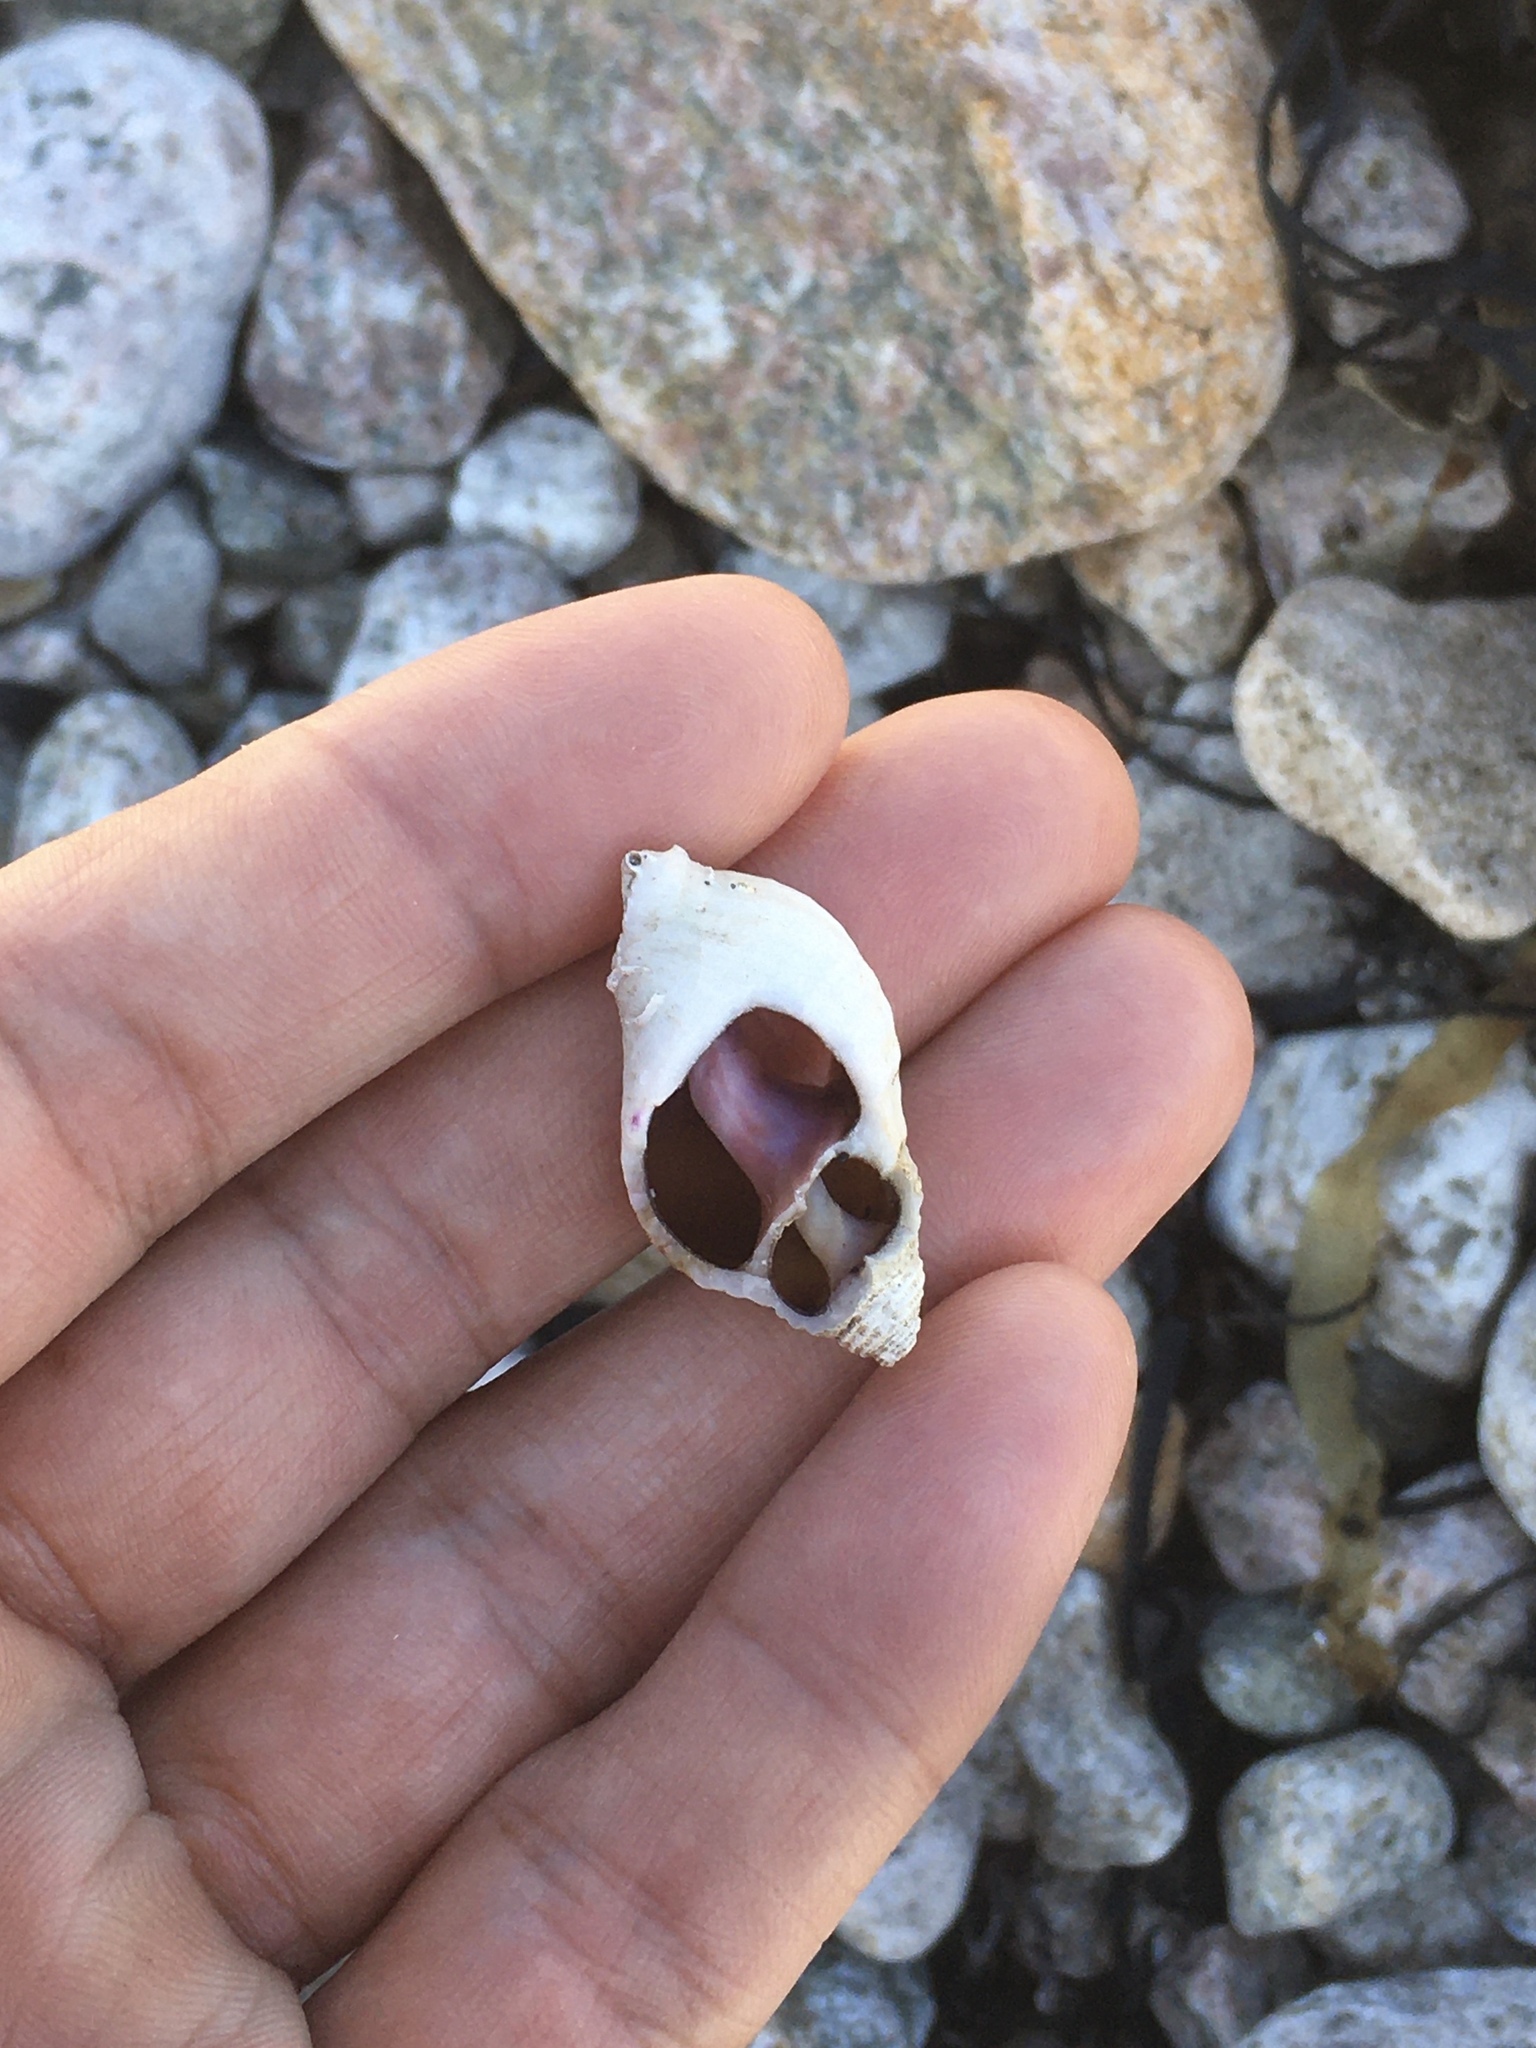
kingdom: Animalia
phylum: Mollusca
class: Gastropoda
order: Neogastropoda
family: Muricidae
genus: Nucella
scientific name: Nucella lapillus
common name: Dog whelk
